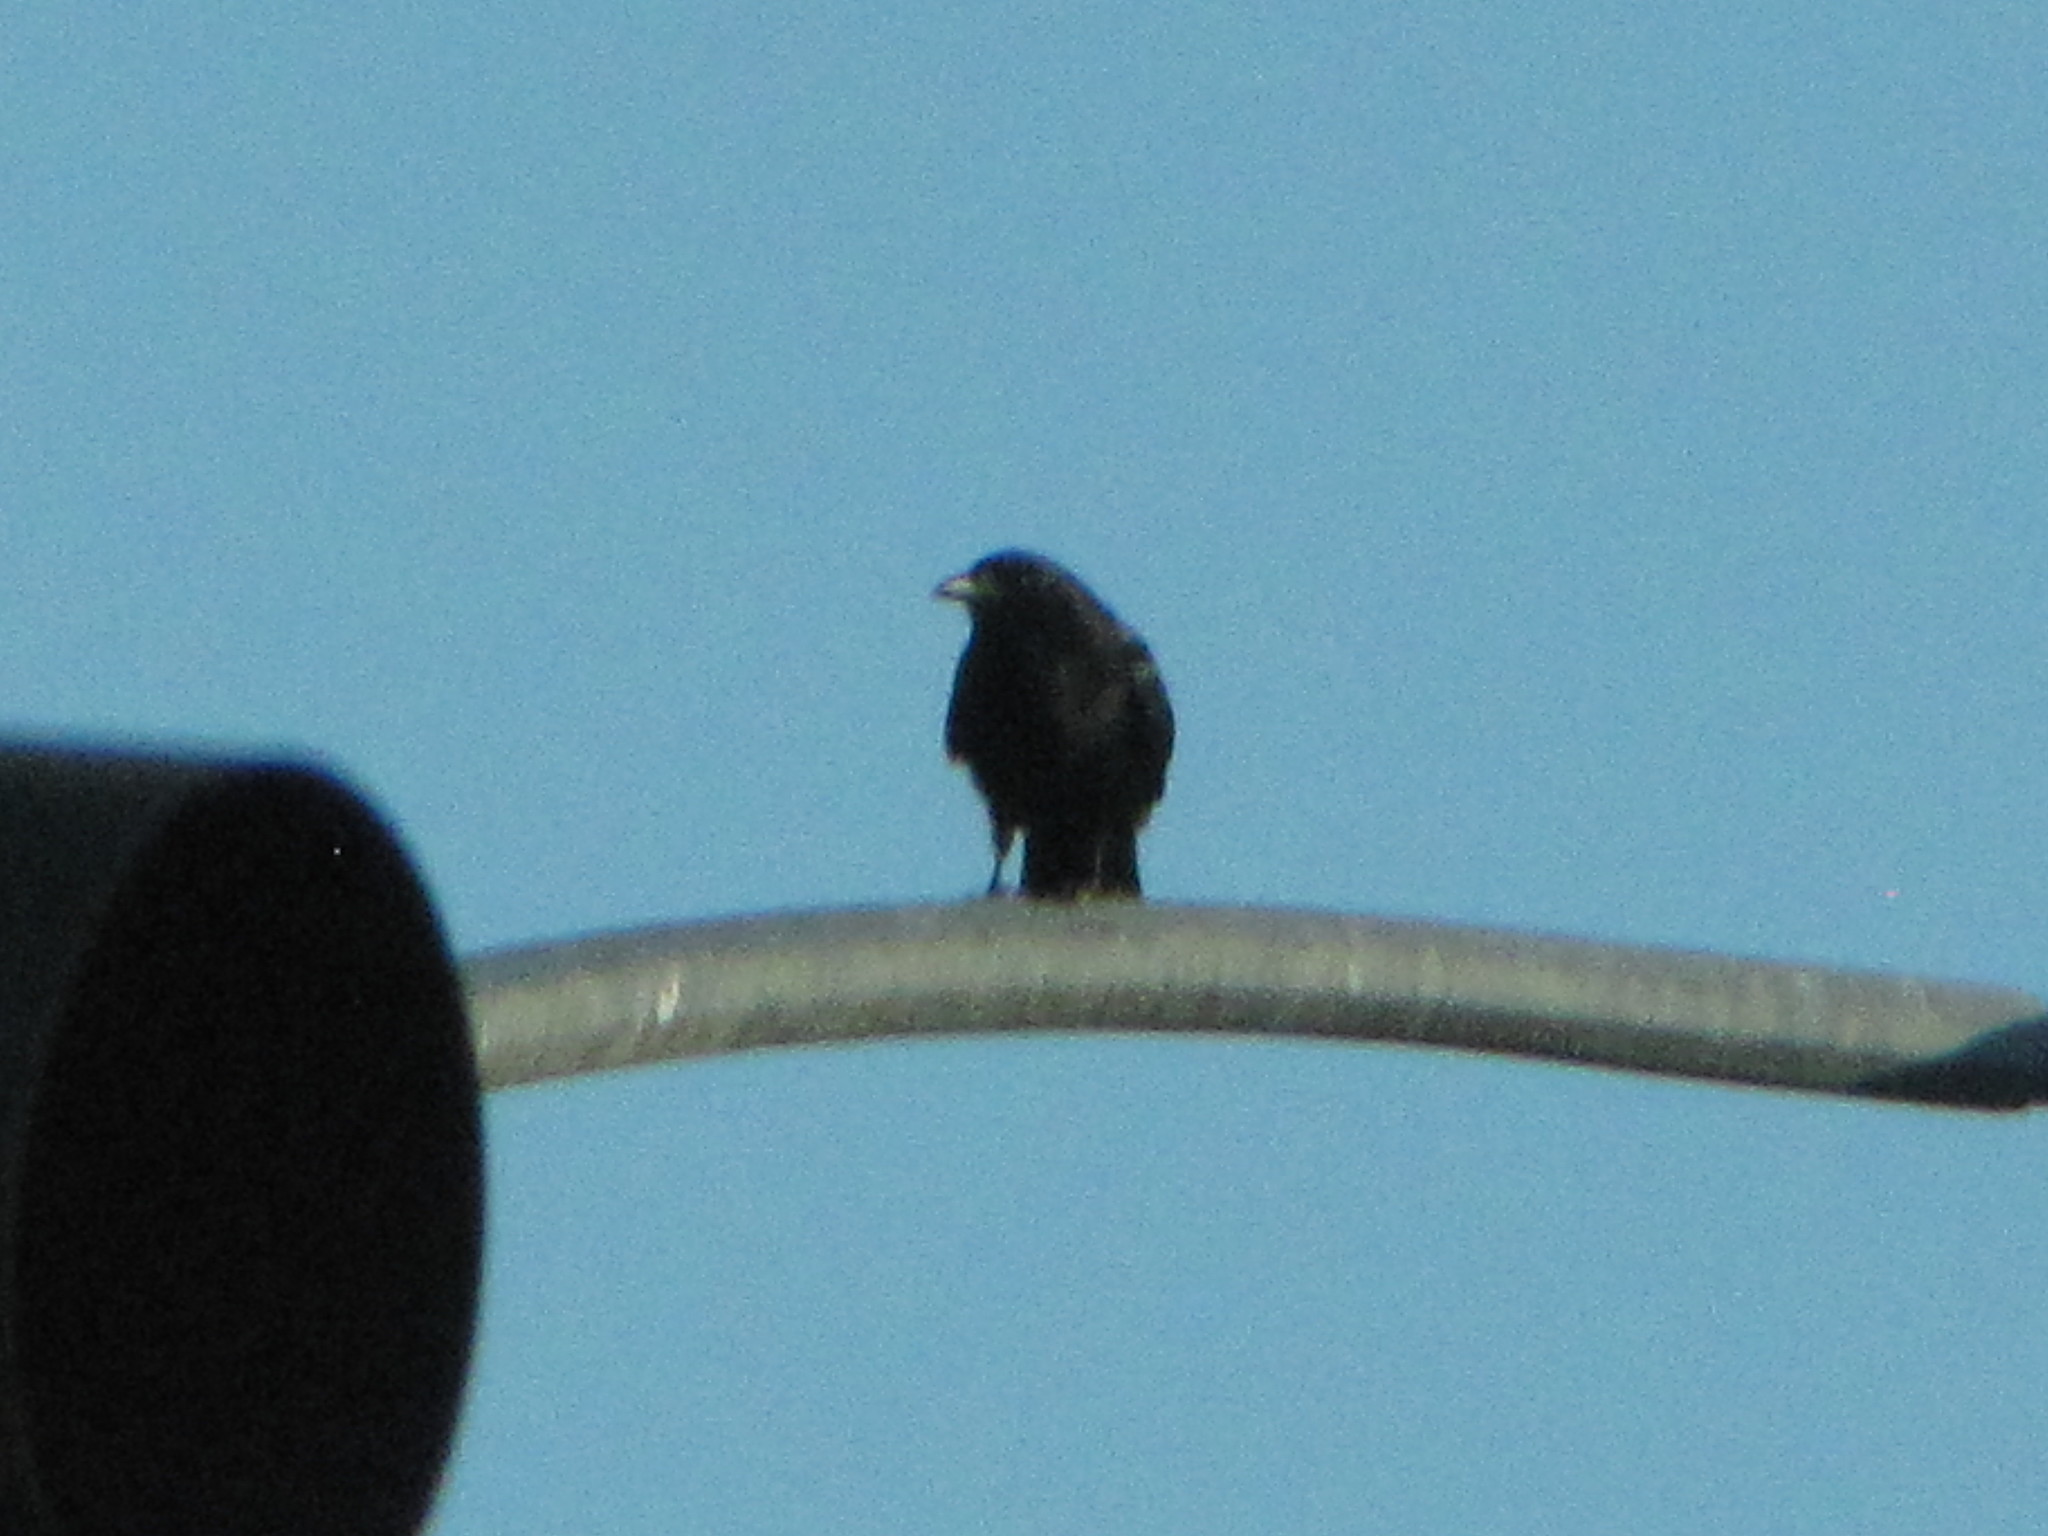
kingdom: Animalia
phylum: Chordata
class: Aves
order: Passeriformes
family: Corvidae
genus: Corvus
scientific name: Corvus brachyrhynchos
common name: American crow
